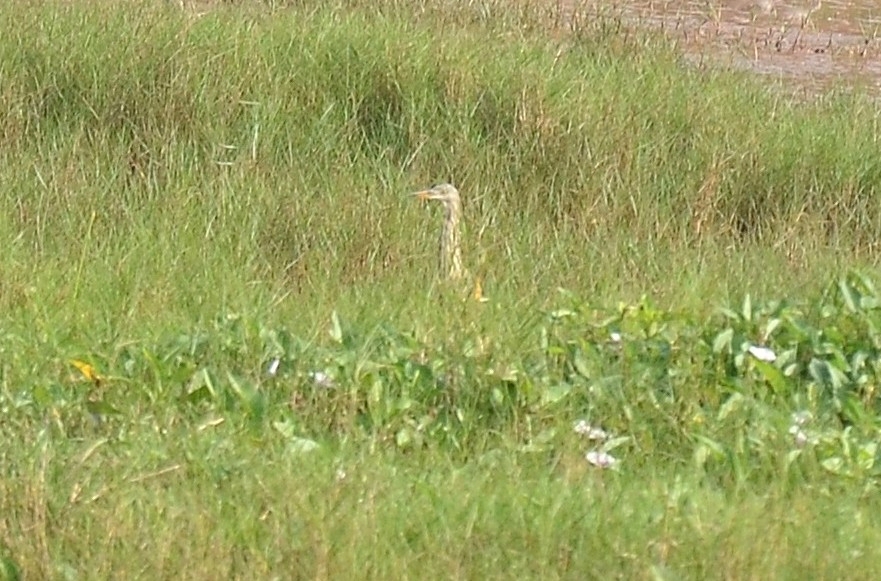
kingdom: Animalia
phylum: Chordata
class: Aves
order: Pelecaniformes
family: Ardeidae
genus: Ardeola
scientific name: Ardeola grayii
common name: Indian pond heron
